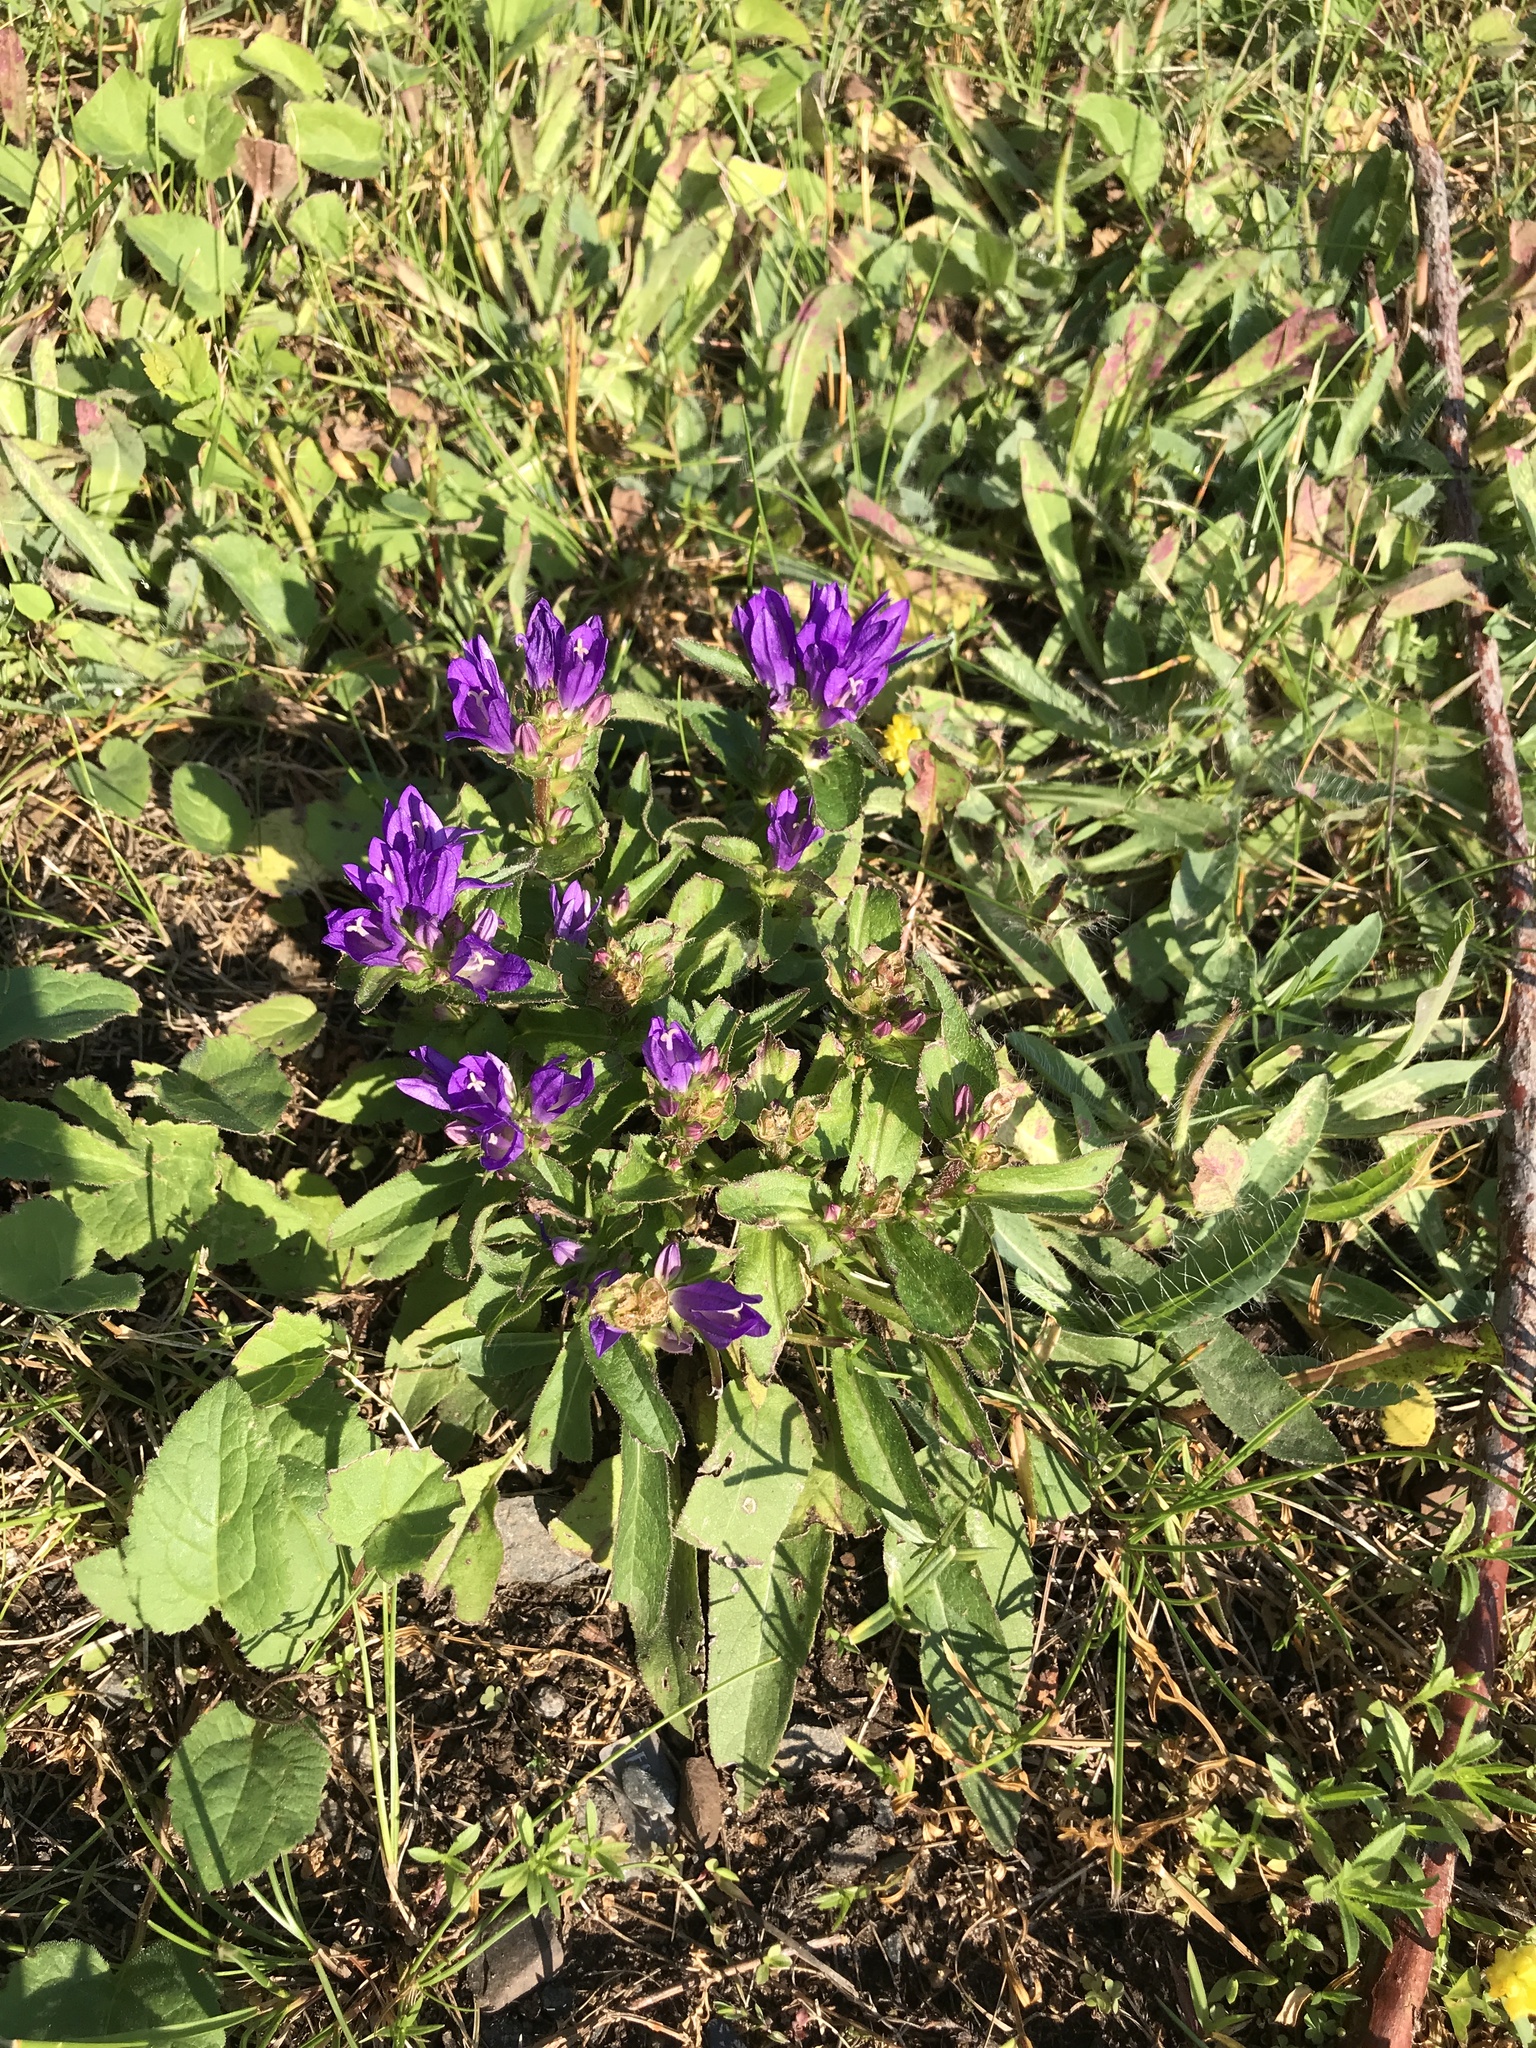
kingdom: Plantae
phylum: Tracheophyta
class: Magnoliopsida
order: Asterales
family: Campanulaceae
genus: Campanula
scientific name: Campanula glomerata
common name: Clustered bellflower
